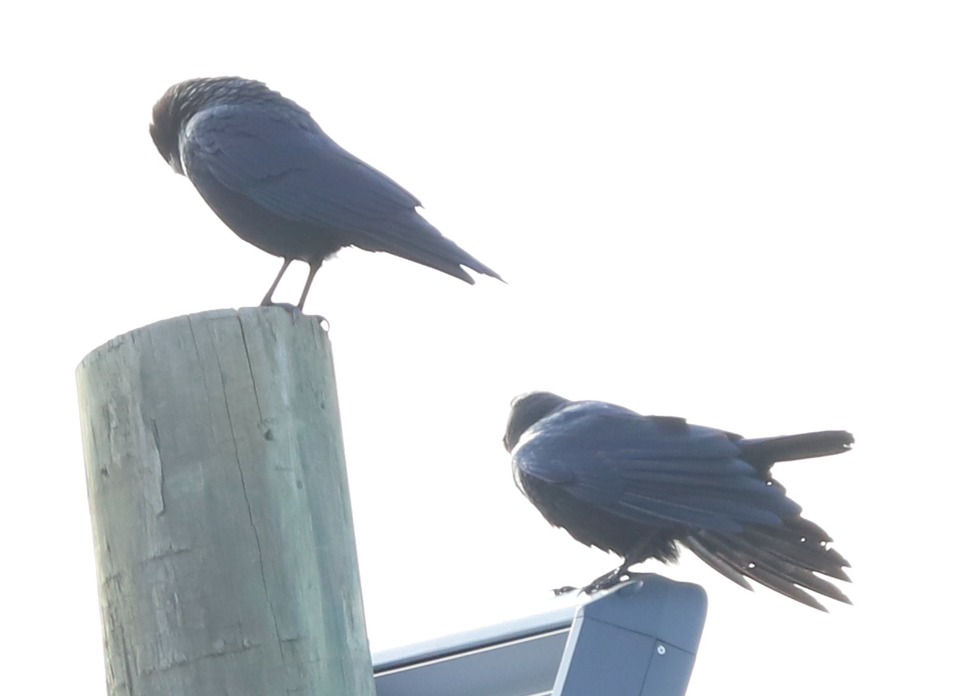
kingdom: Animalia
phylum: Chordata
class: Aves
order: Passeriformes
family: Corvidae
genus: Corvus
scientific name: Corvus brachyrhynchos
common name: American crow
